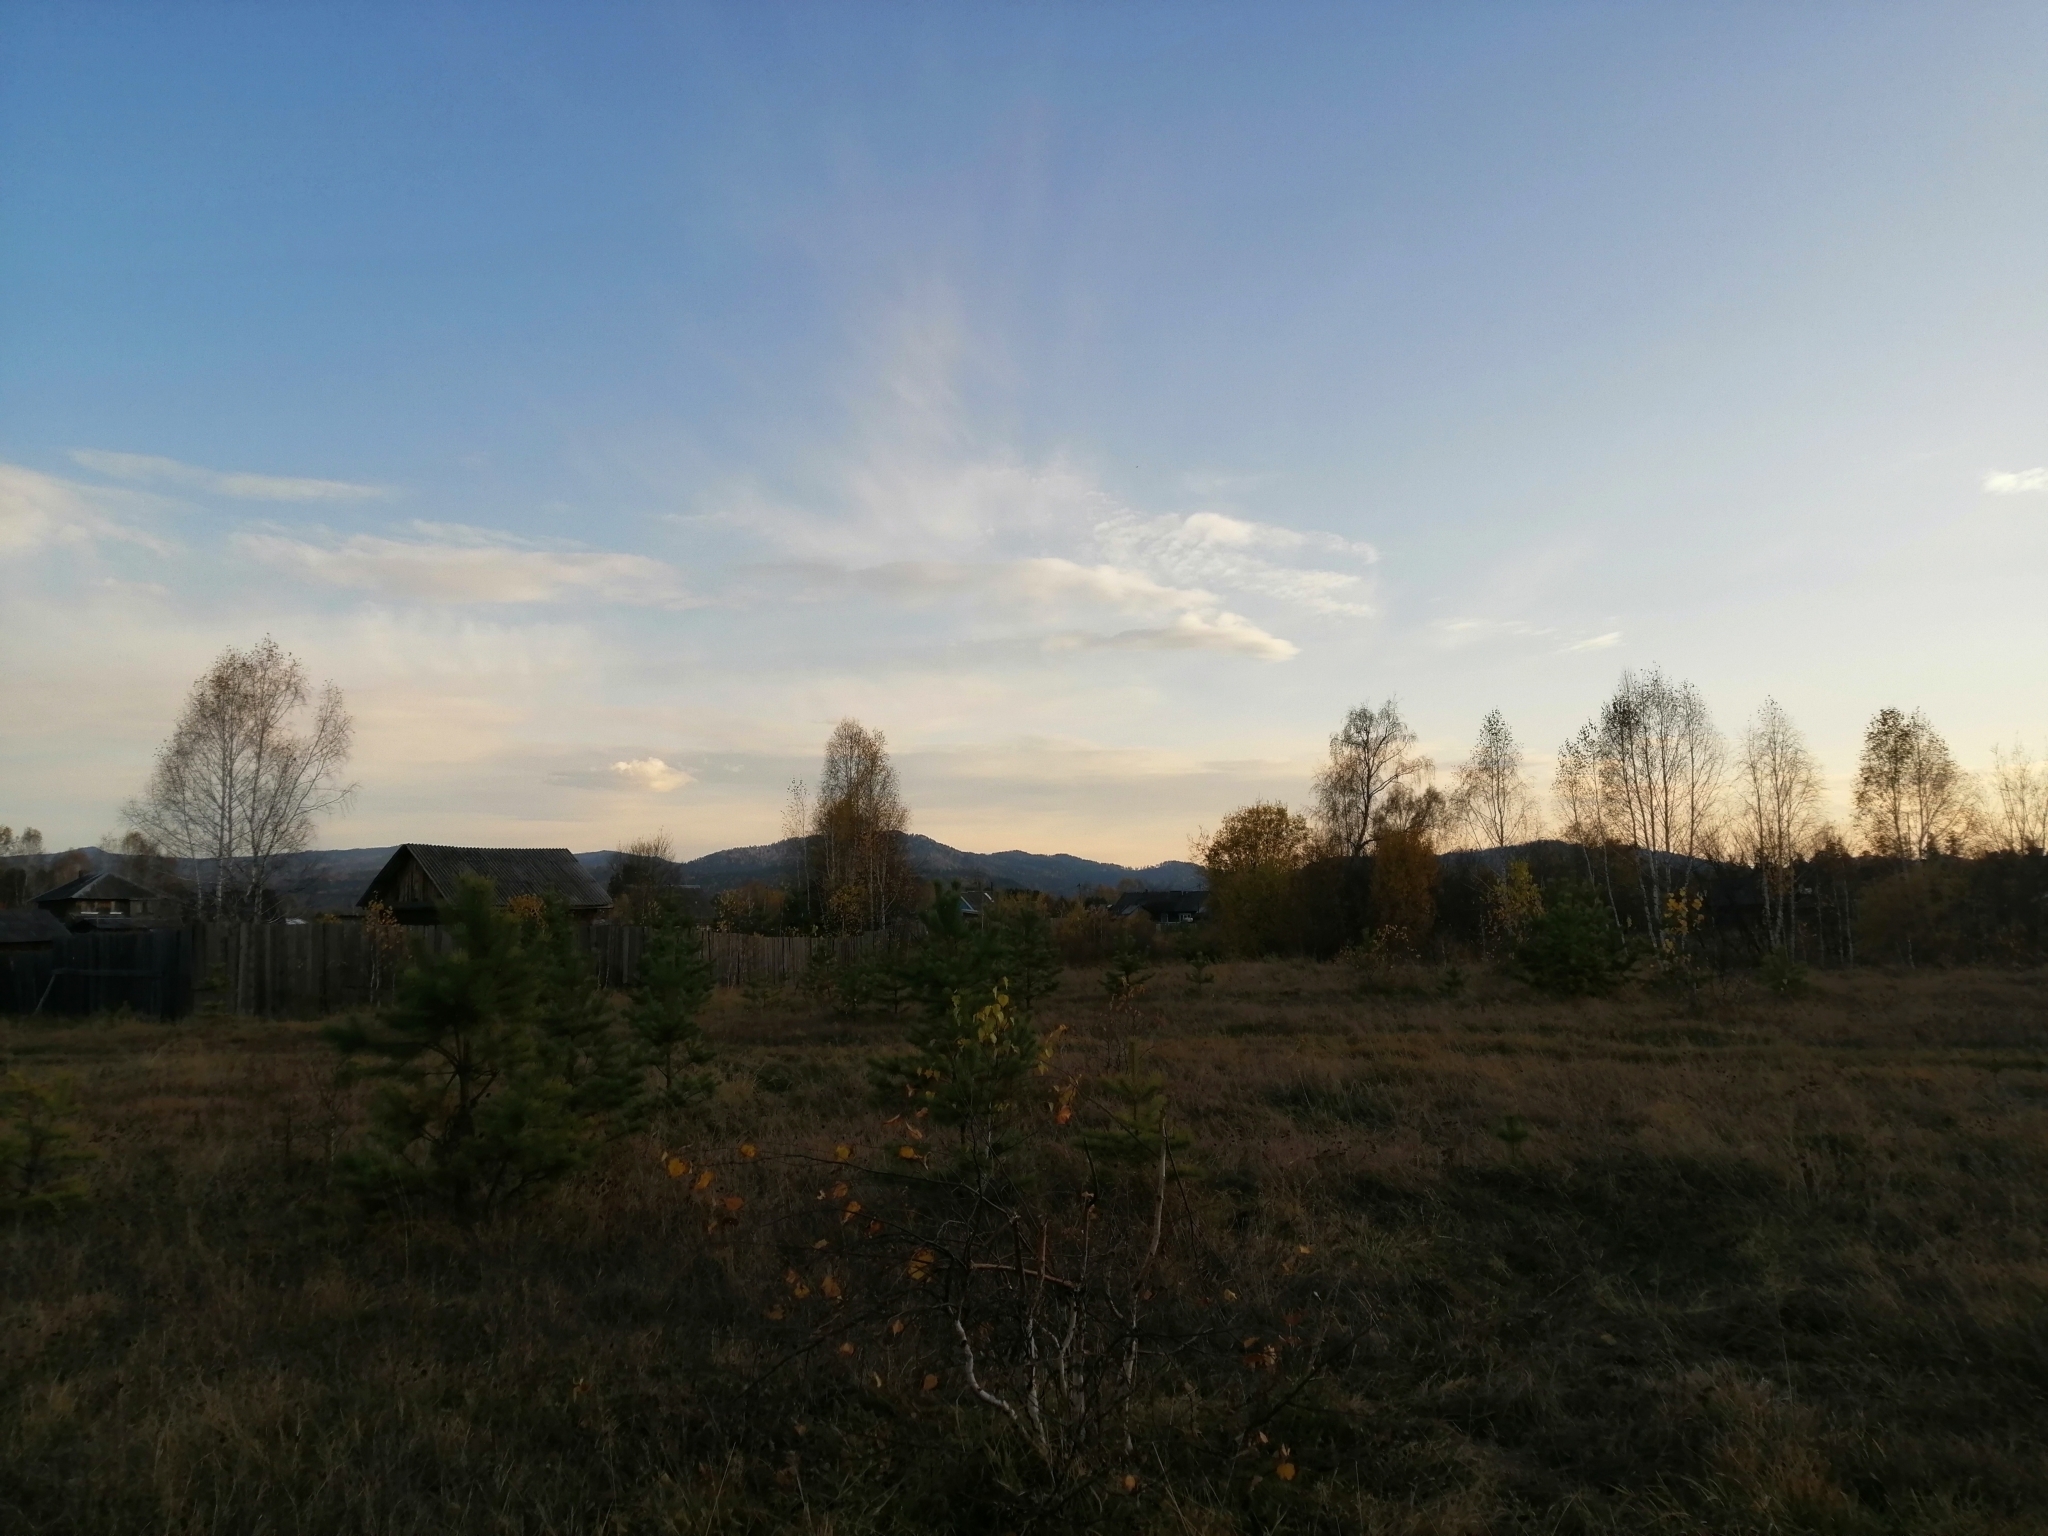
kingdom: Plantae
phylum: Tracheophyta
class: Pinopsida
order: Pinales
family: Pinaceae
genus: Pinus
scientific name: Pinus sylvestris
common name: Scots pine
